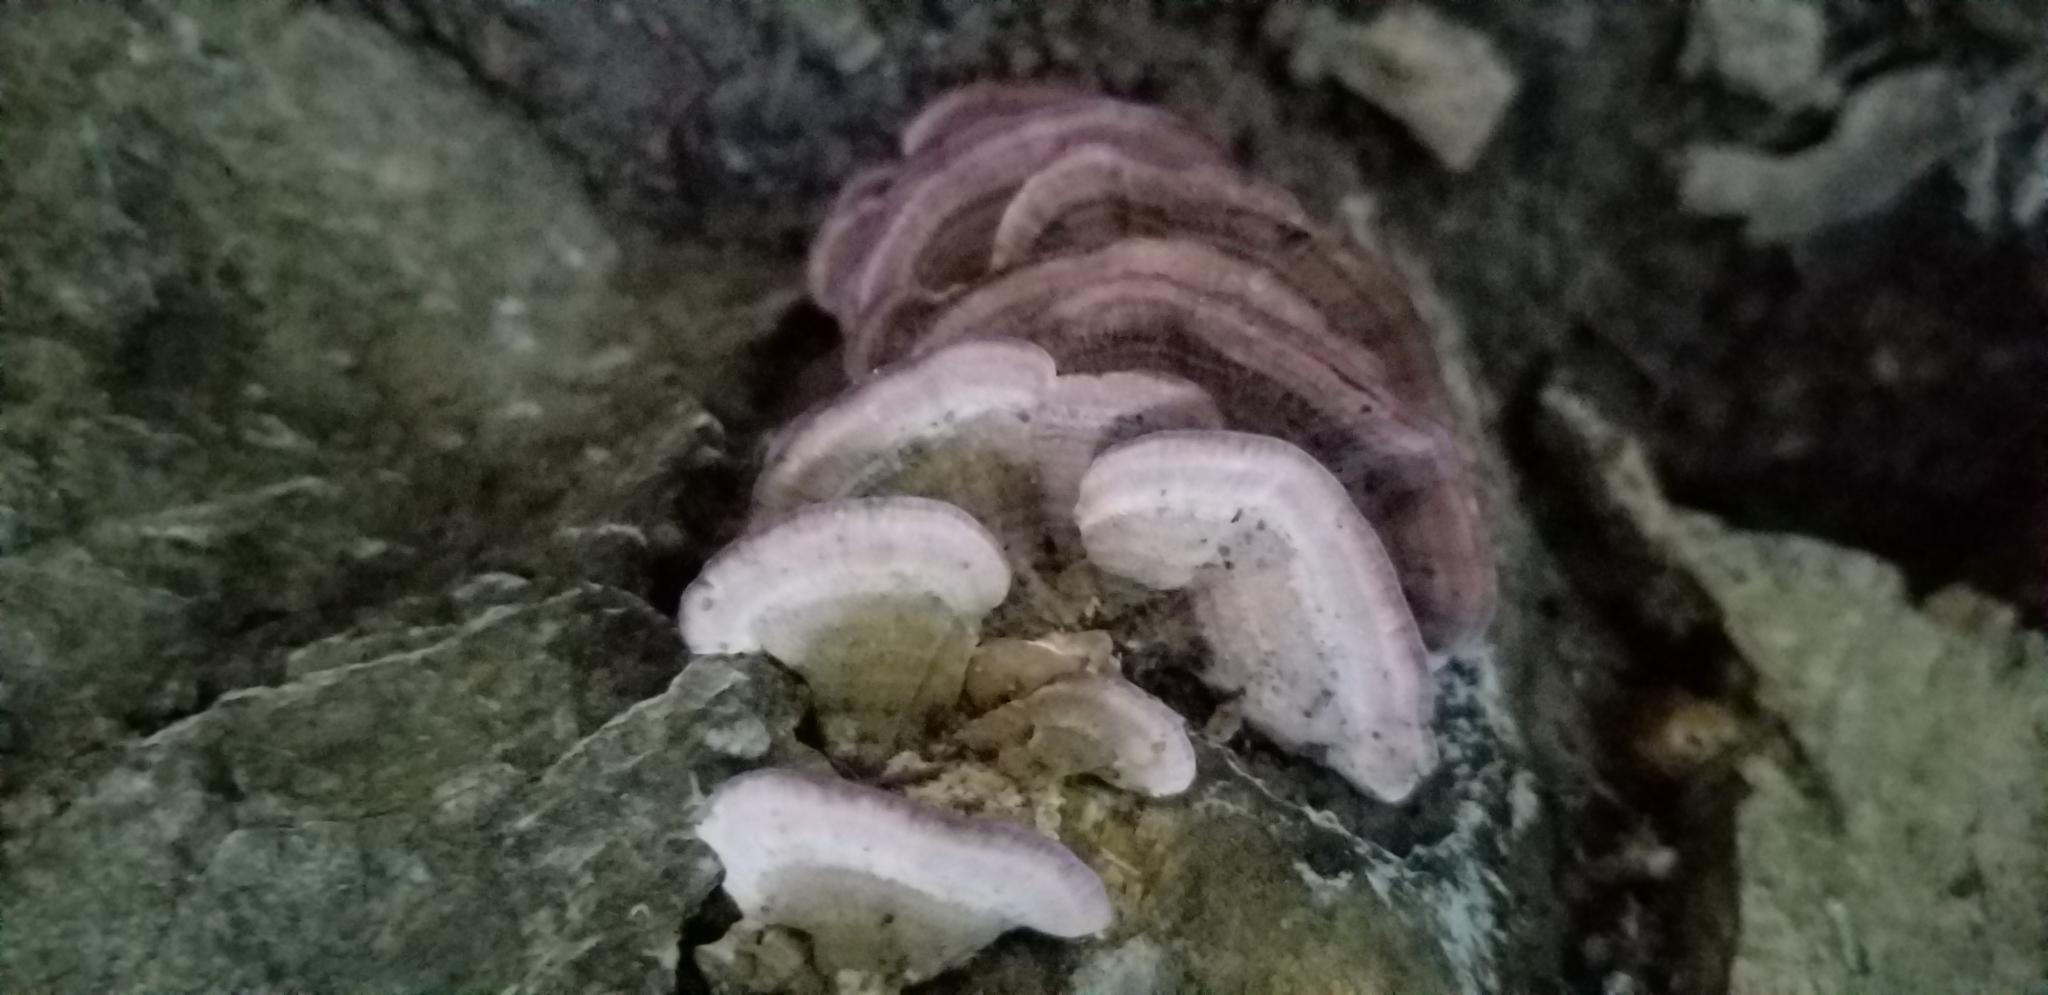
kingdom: Fungi
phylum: Basidiomycota
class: Agaricomycetes
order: Hymenochaetales
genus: Trichaptum
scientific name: Trichaptum biforme
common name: Violet-toothed polypore
